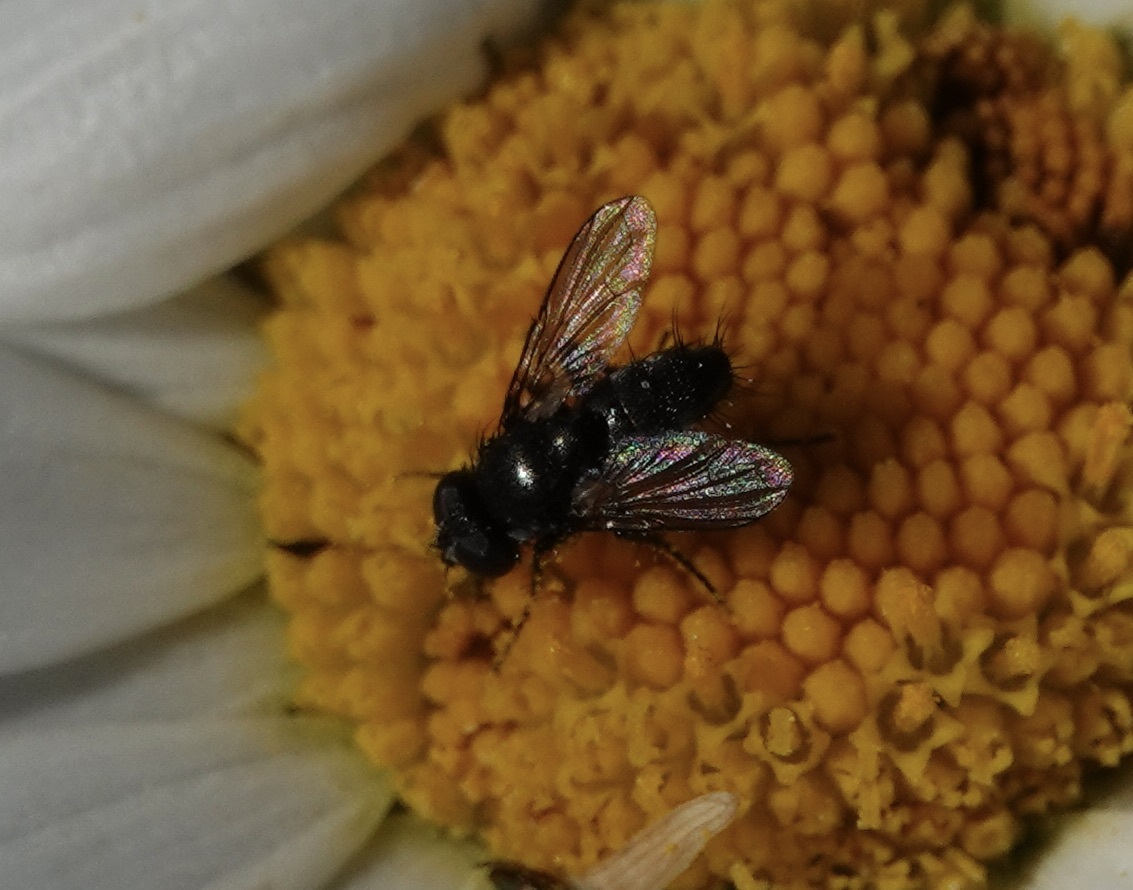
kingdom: Animalia
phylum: Arthropoda
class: Insecta
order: Diptera
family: Calliphoridae
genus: Rhinophora
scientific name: Rhinophora lepida
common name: Pouting woodlouse-fly
